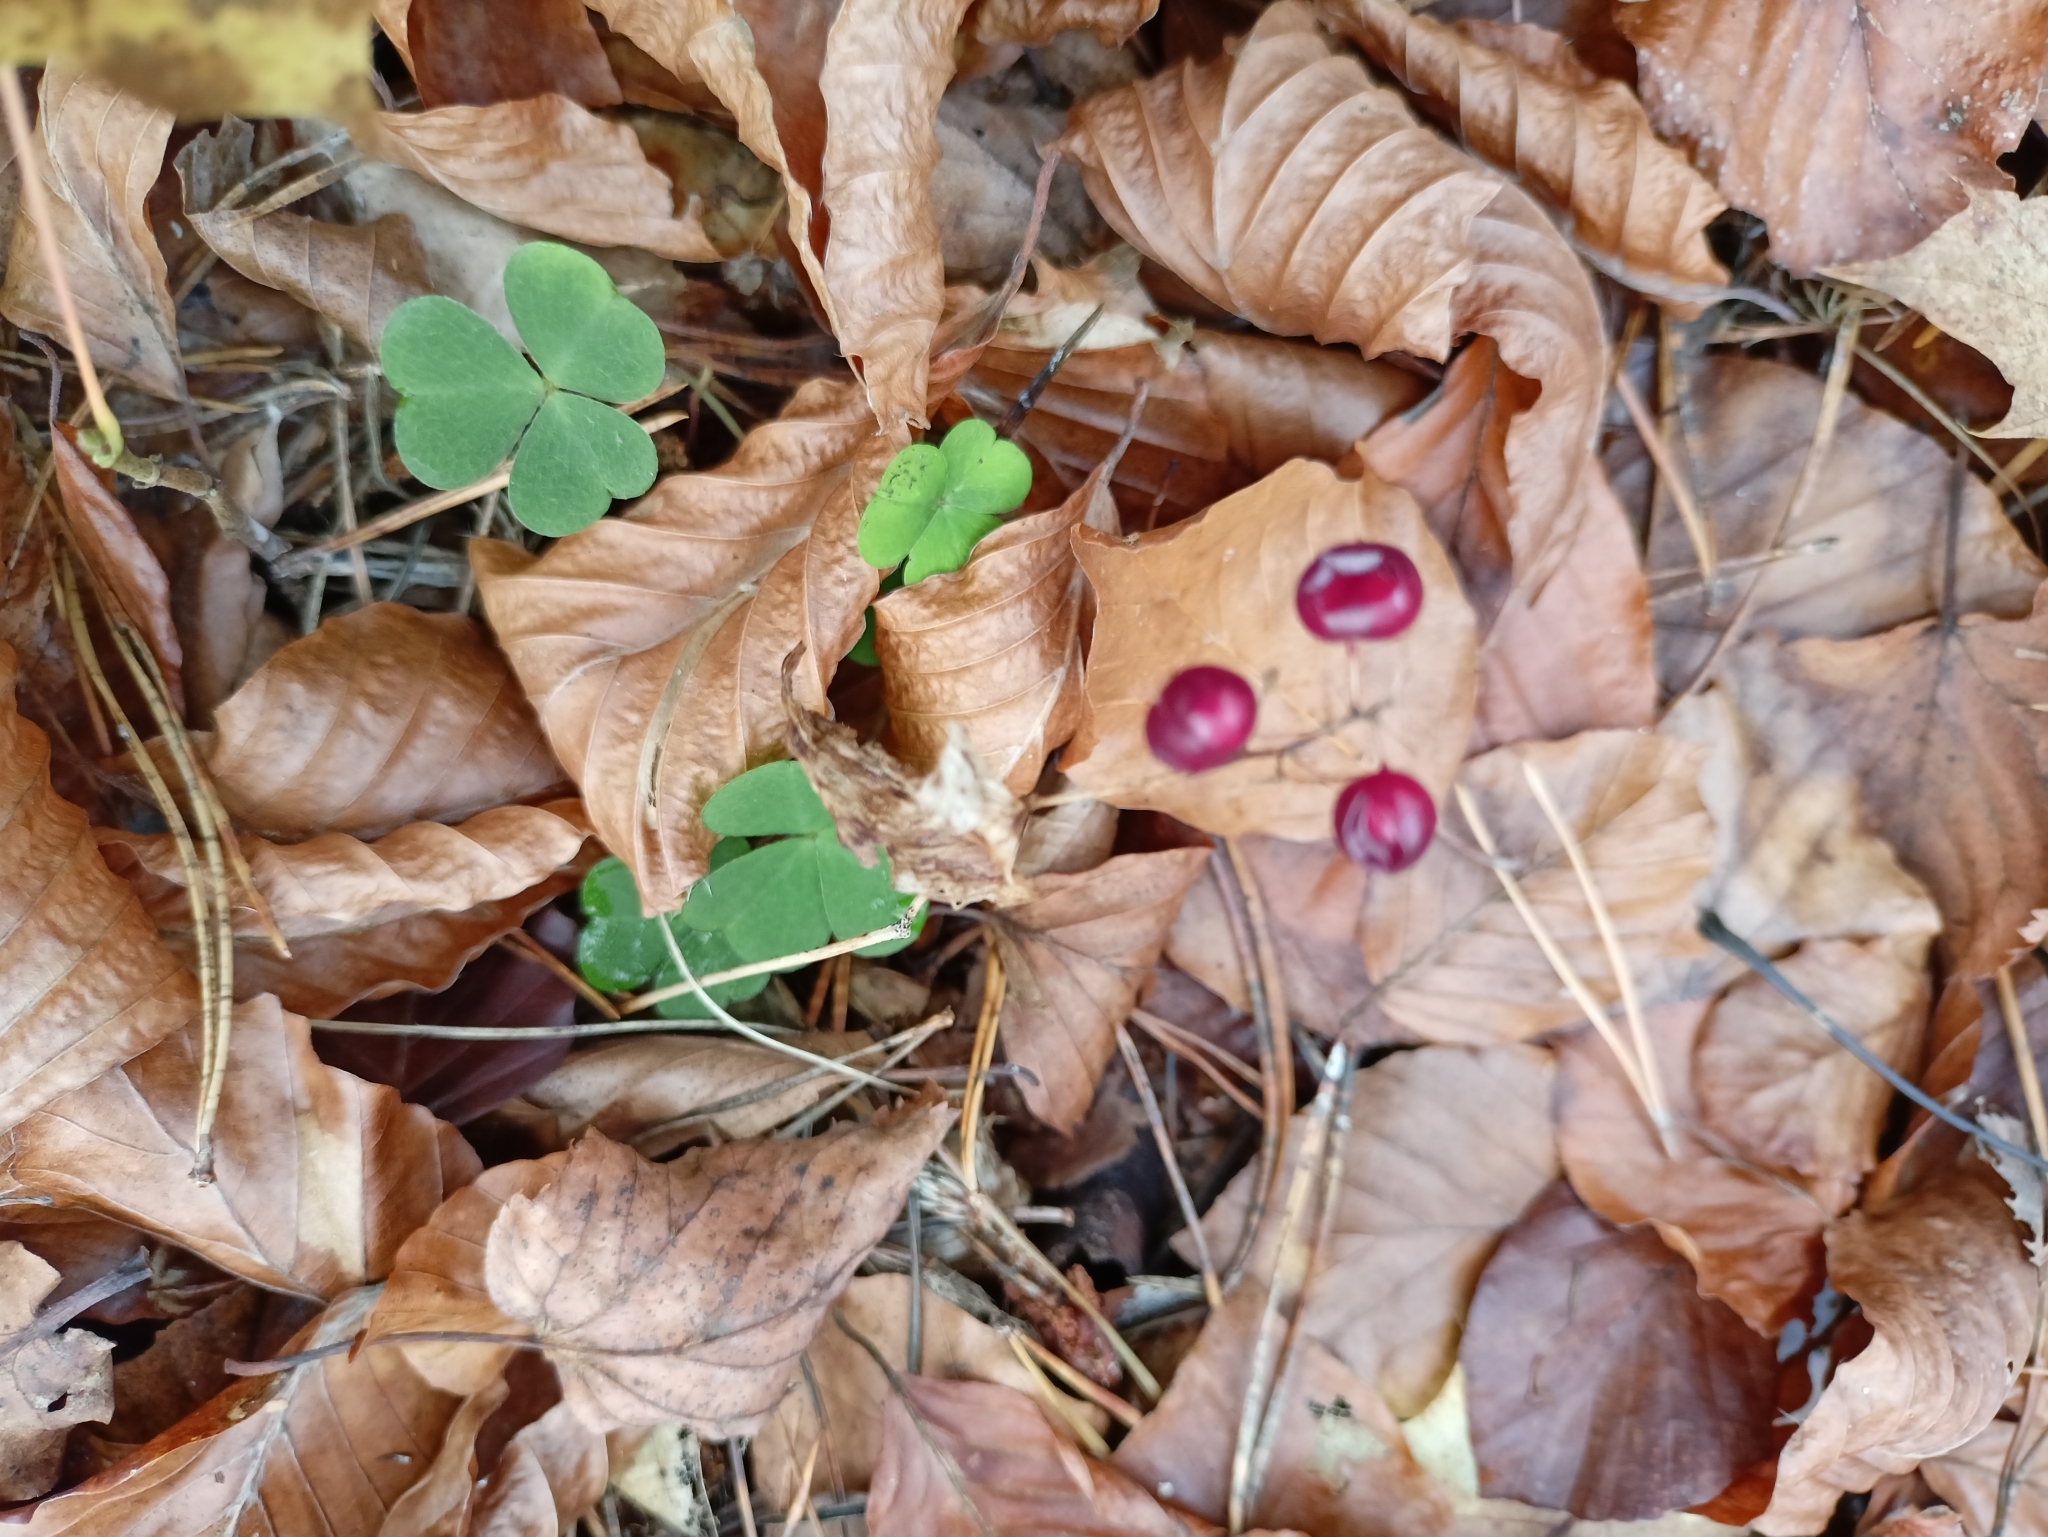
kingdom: Plantae
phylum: Tracheophyta
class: Liliopsida
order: Asparagales
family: Asparagaceae
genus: Maianthemum
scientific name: Maianthemum bifolium
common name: May lily
